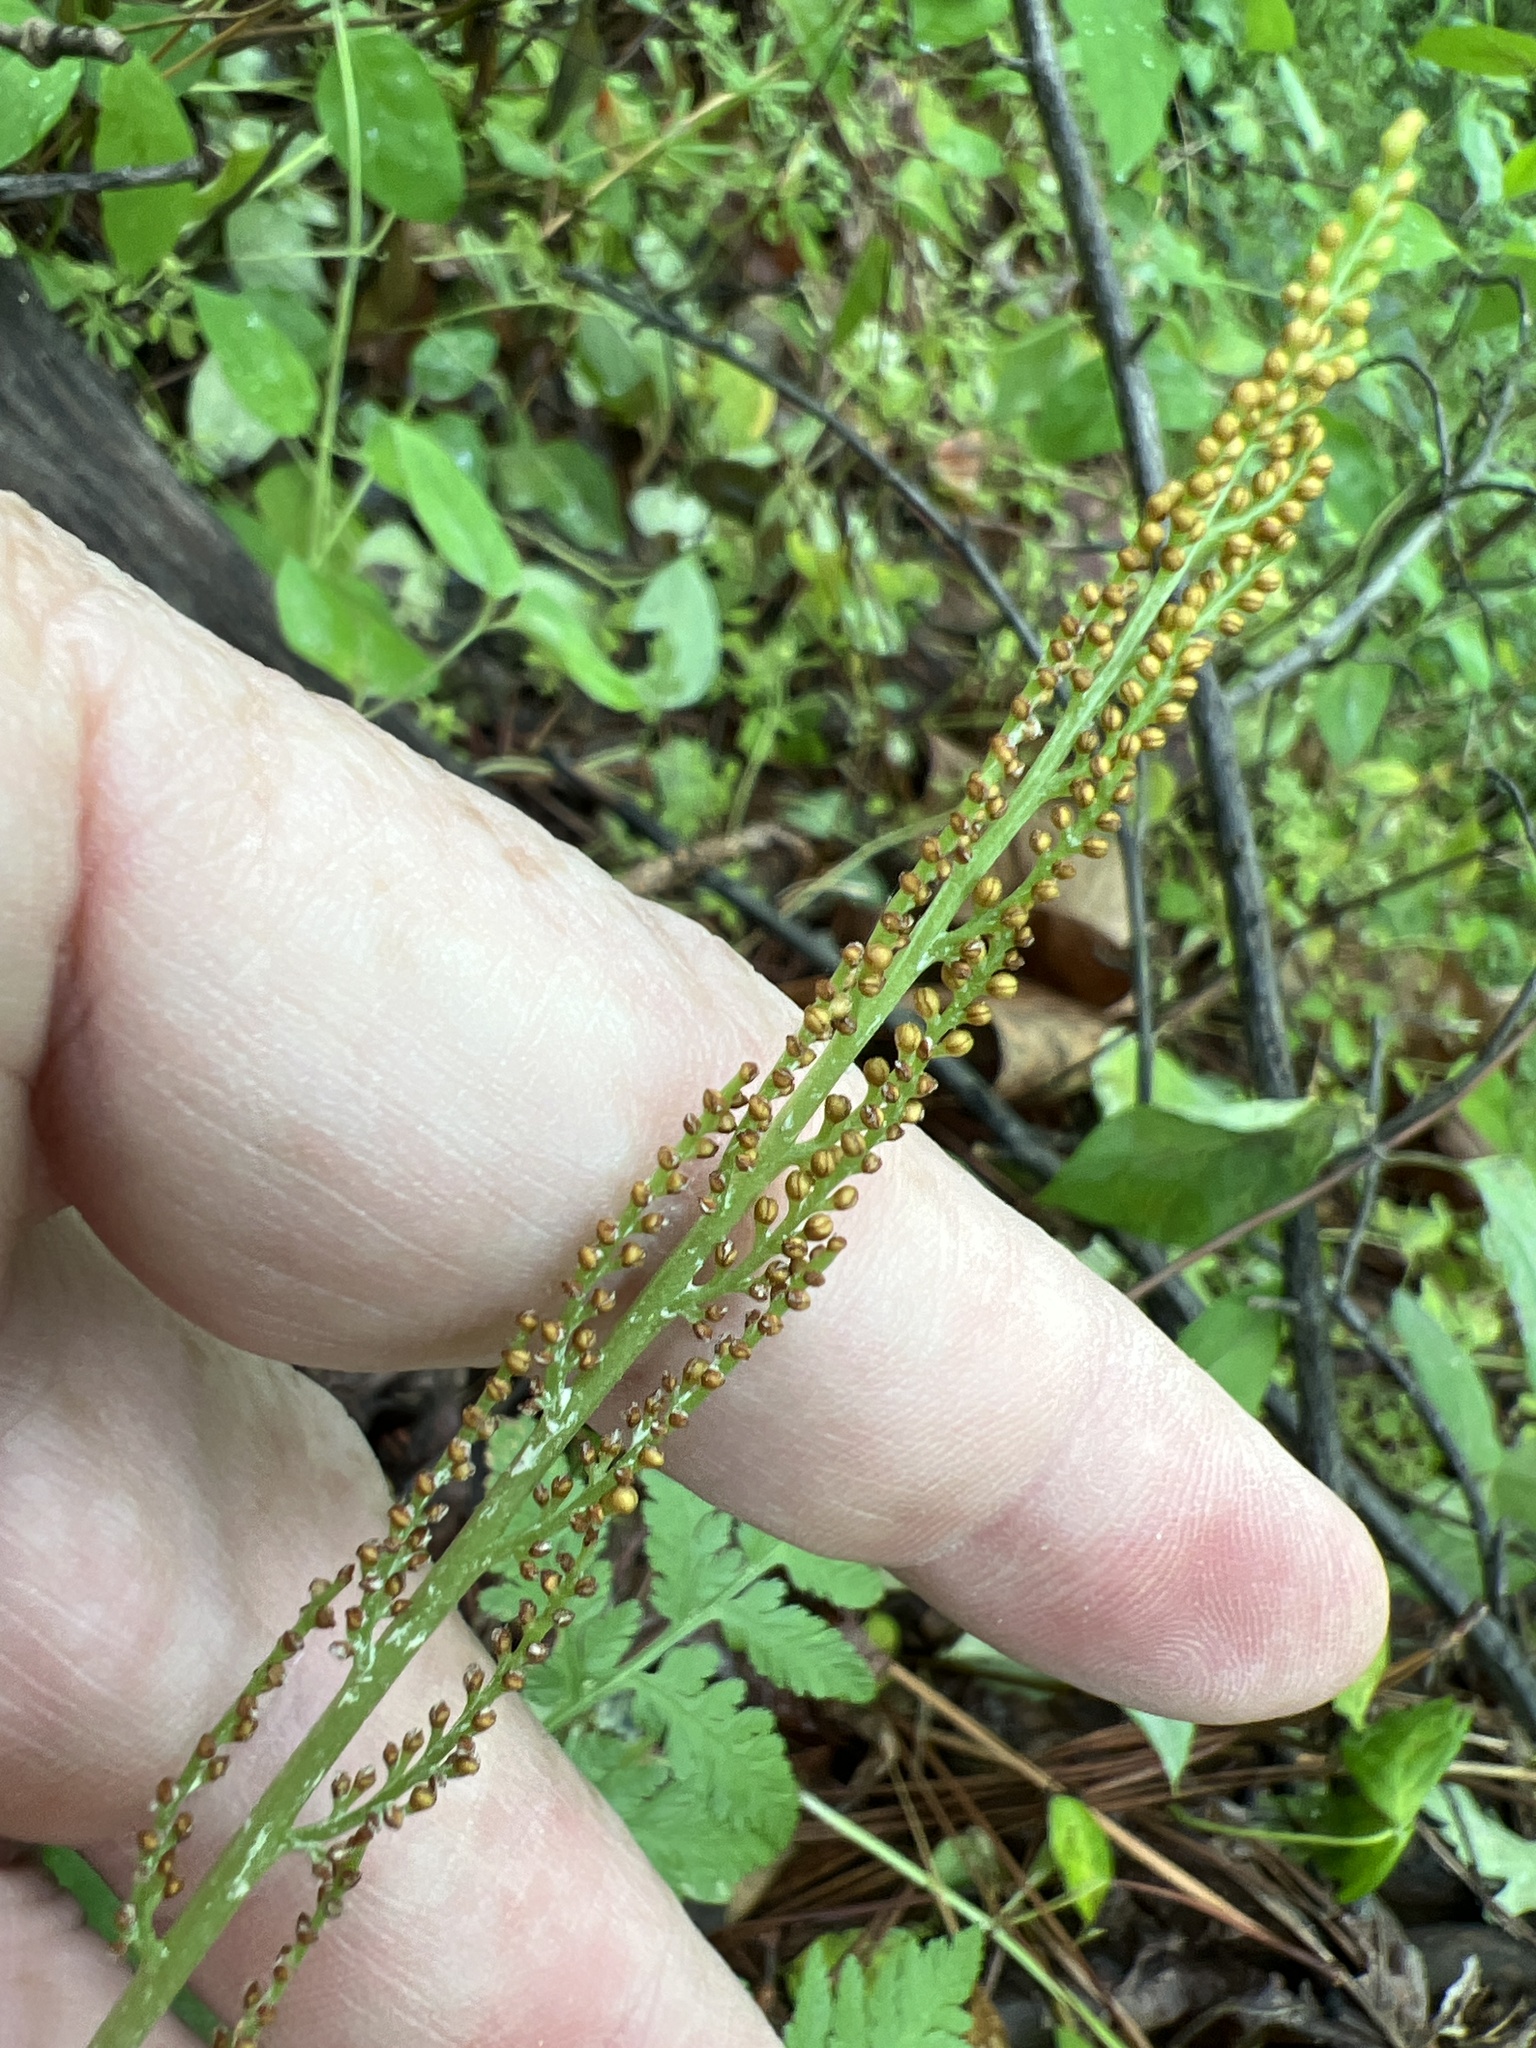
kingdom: Plantae
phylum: Tracheophyta
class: Polypodiopsida
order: Ophioglossales
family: Ophioglossaceae
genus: Botrypus
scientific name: Botrypus virginianus
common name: Common grapefern
